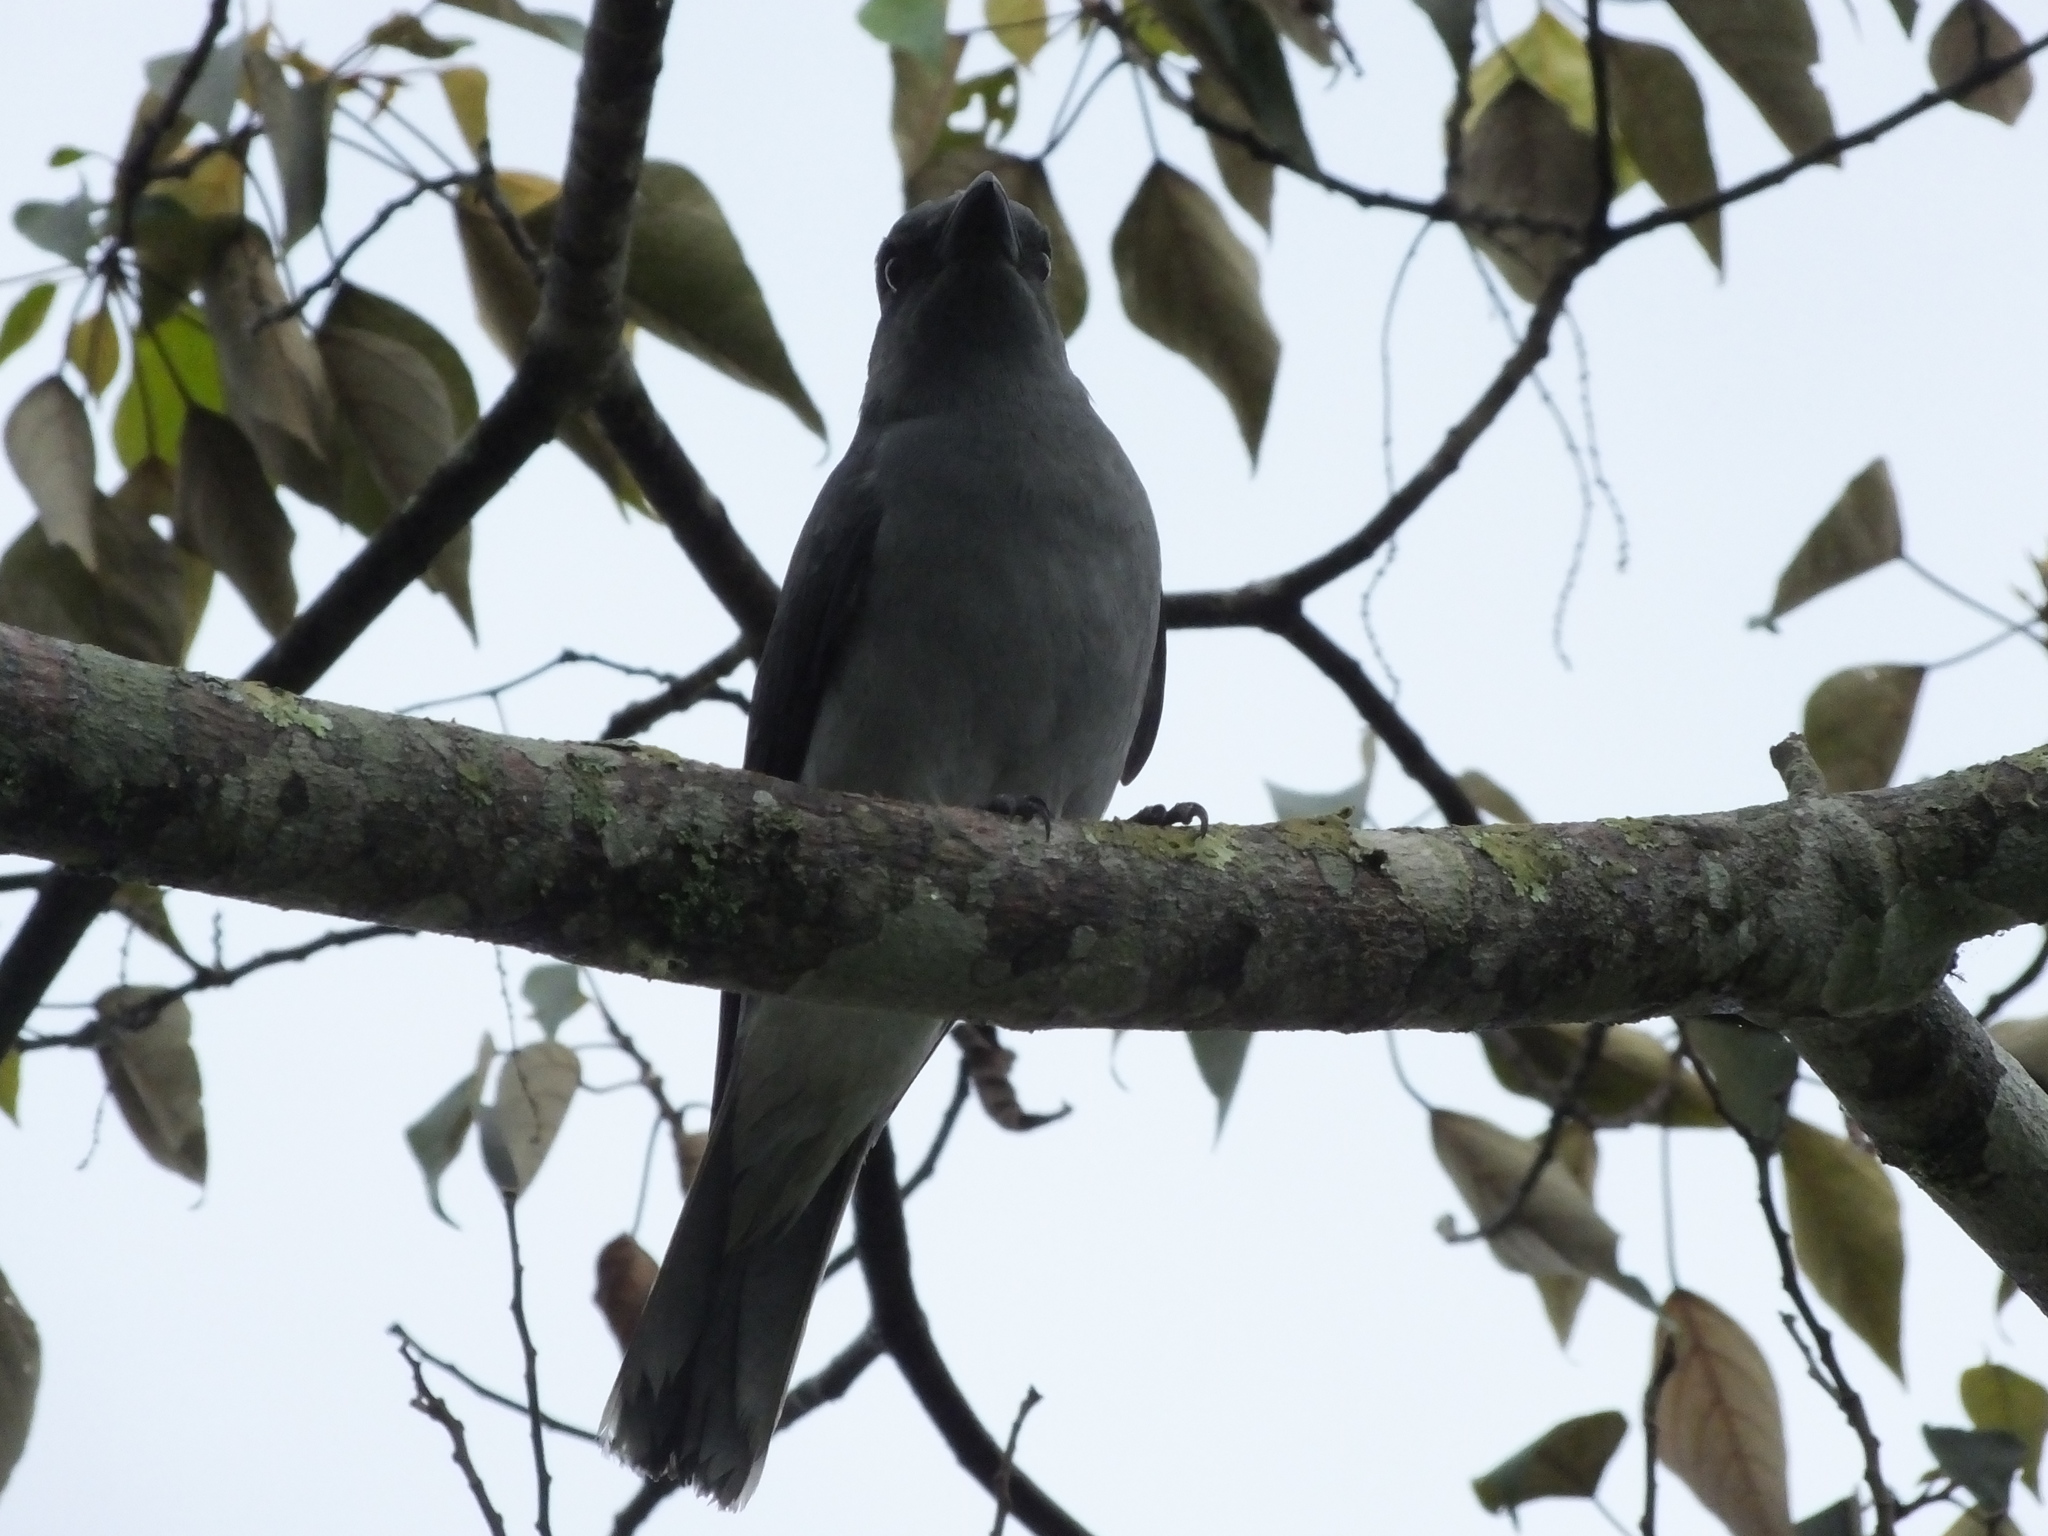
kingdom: Animalia
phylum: Chordata
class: Aves
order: Passeriformes
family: Campephagidae
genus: Coracina
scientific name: Coracina macei
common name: Large cuckooshrike
